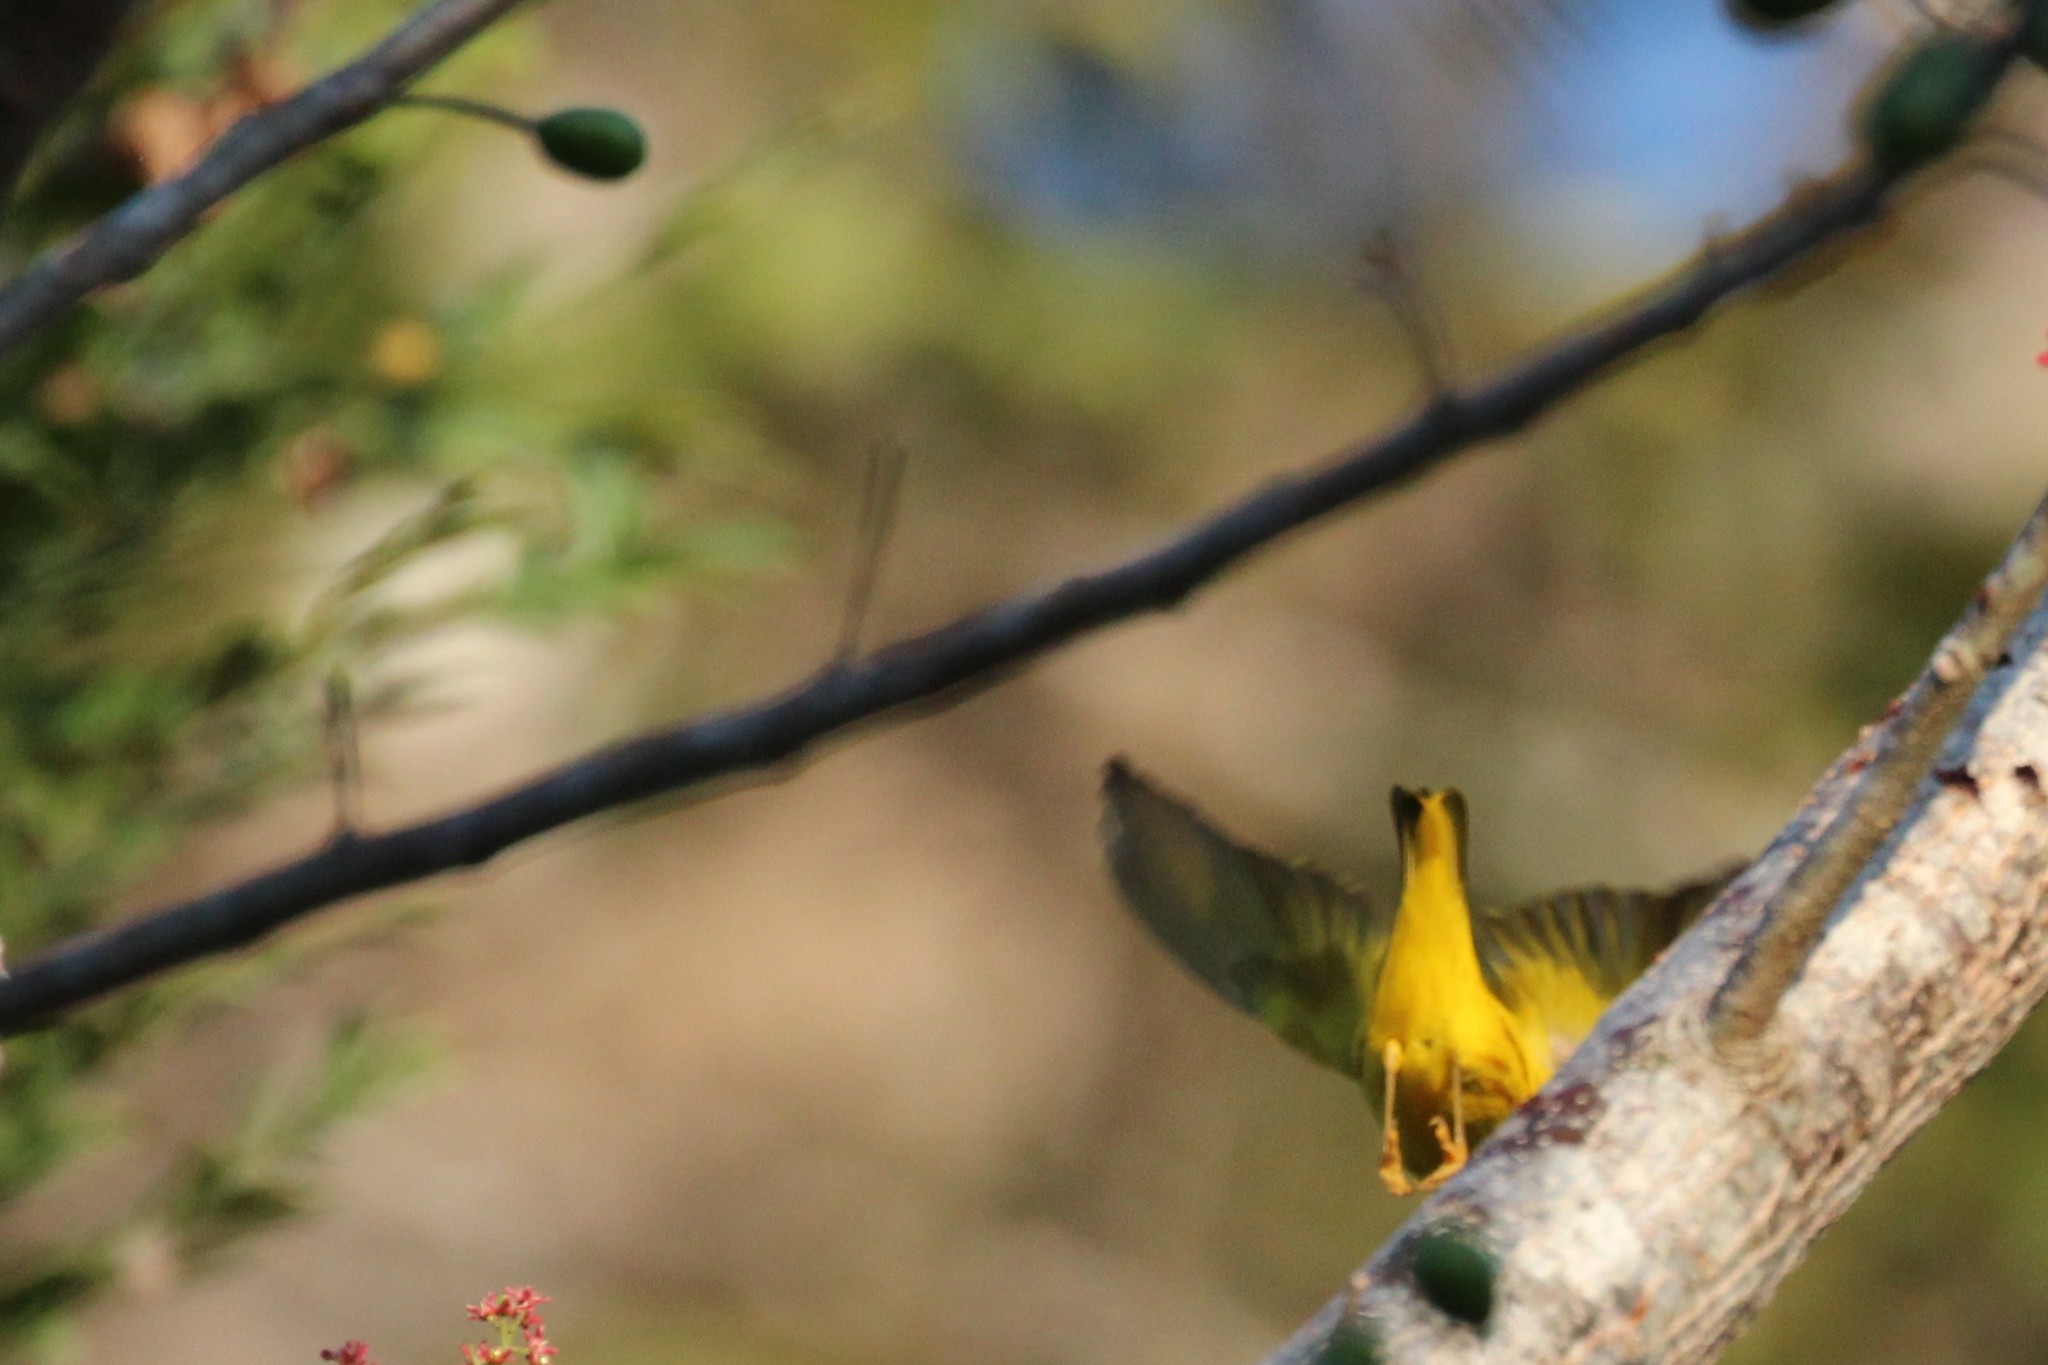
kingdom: Animalia
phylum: Chordata
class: Aves
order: Passeriformes
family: Parulidae
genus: Setophaga
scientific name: Setophaga petechia
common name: Yellow warbler
